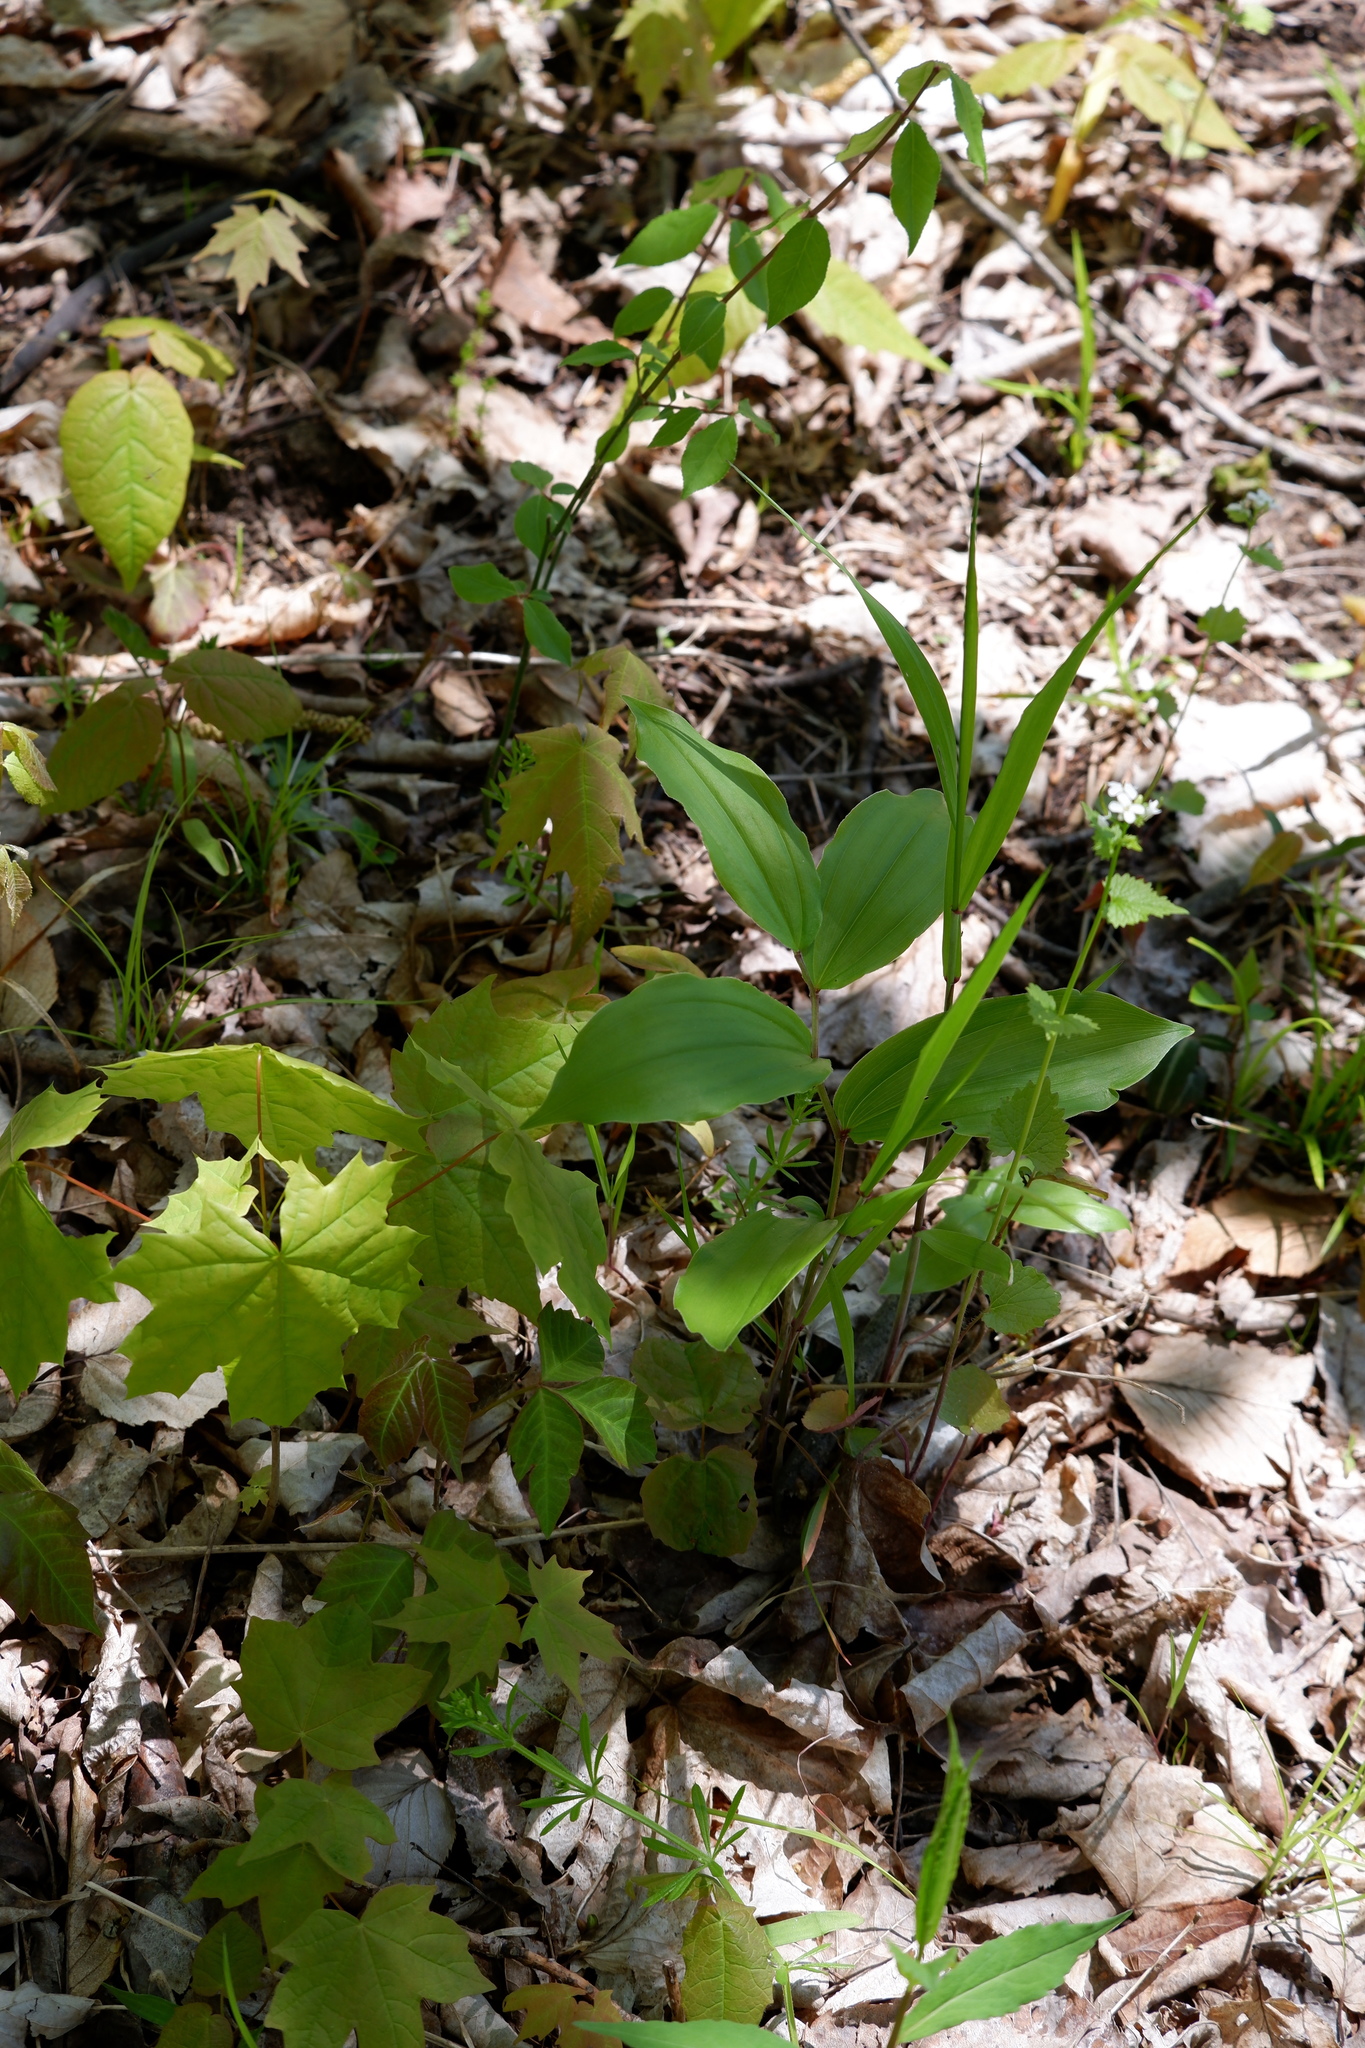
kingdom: Plantae
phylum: Tracheophyta
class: Liliopsida
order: Asparagales
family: Asparagaceae
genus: Maianthemum
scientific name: Maianthemum racemosum
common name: False spikenard
